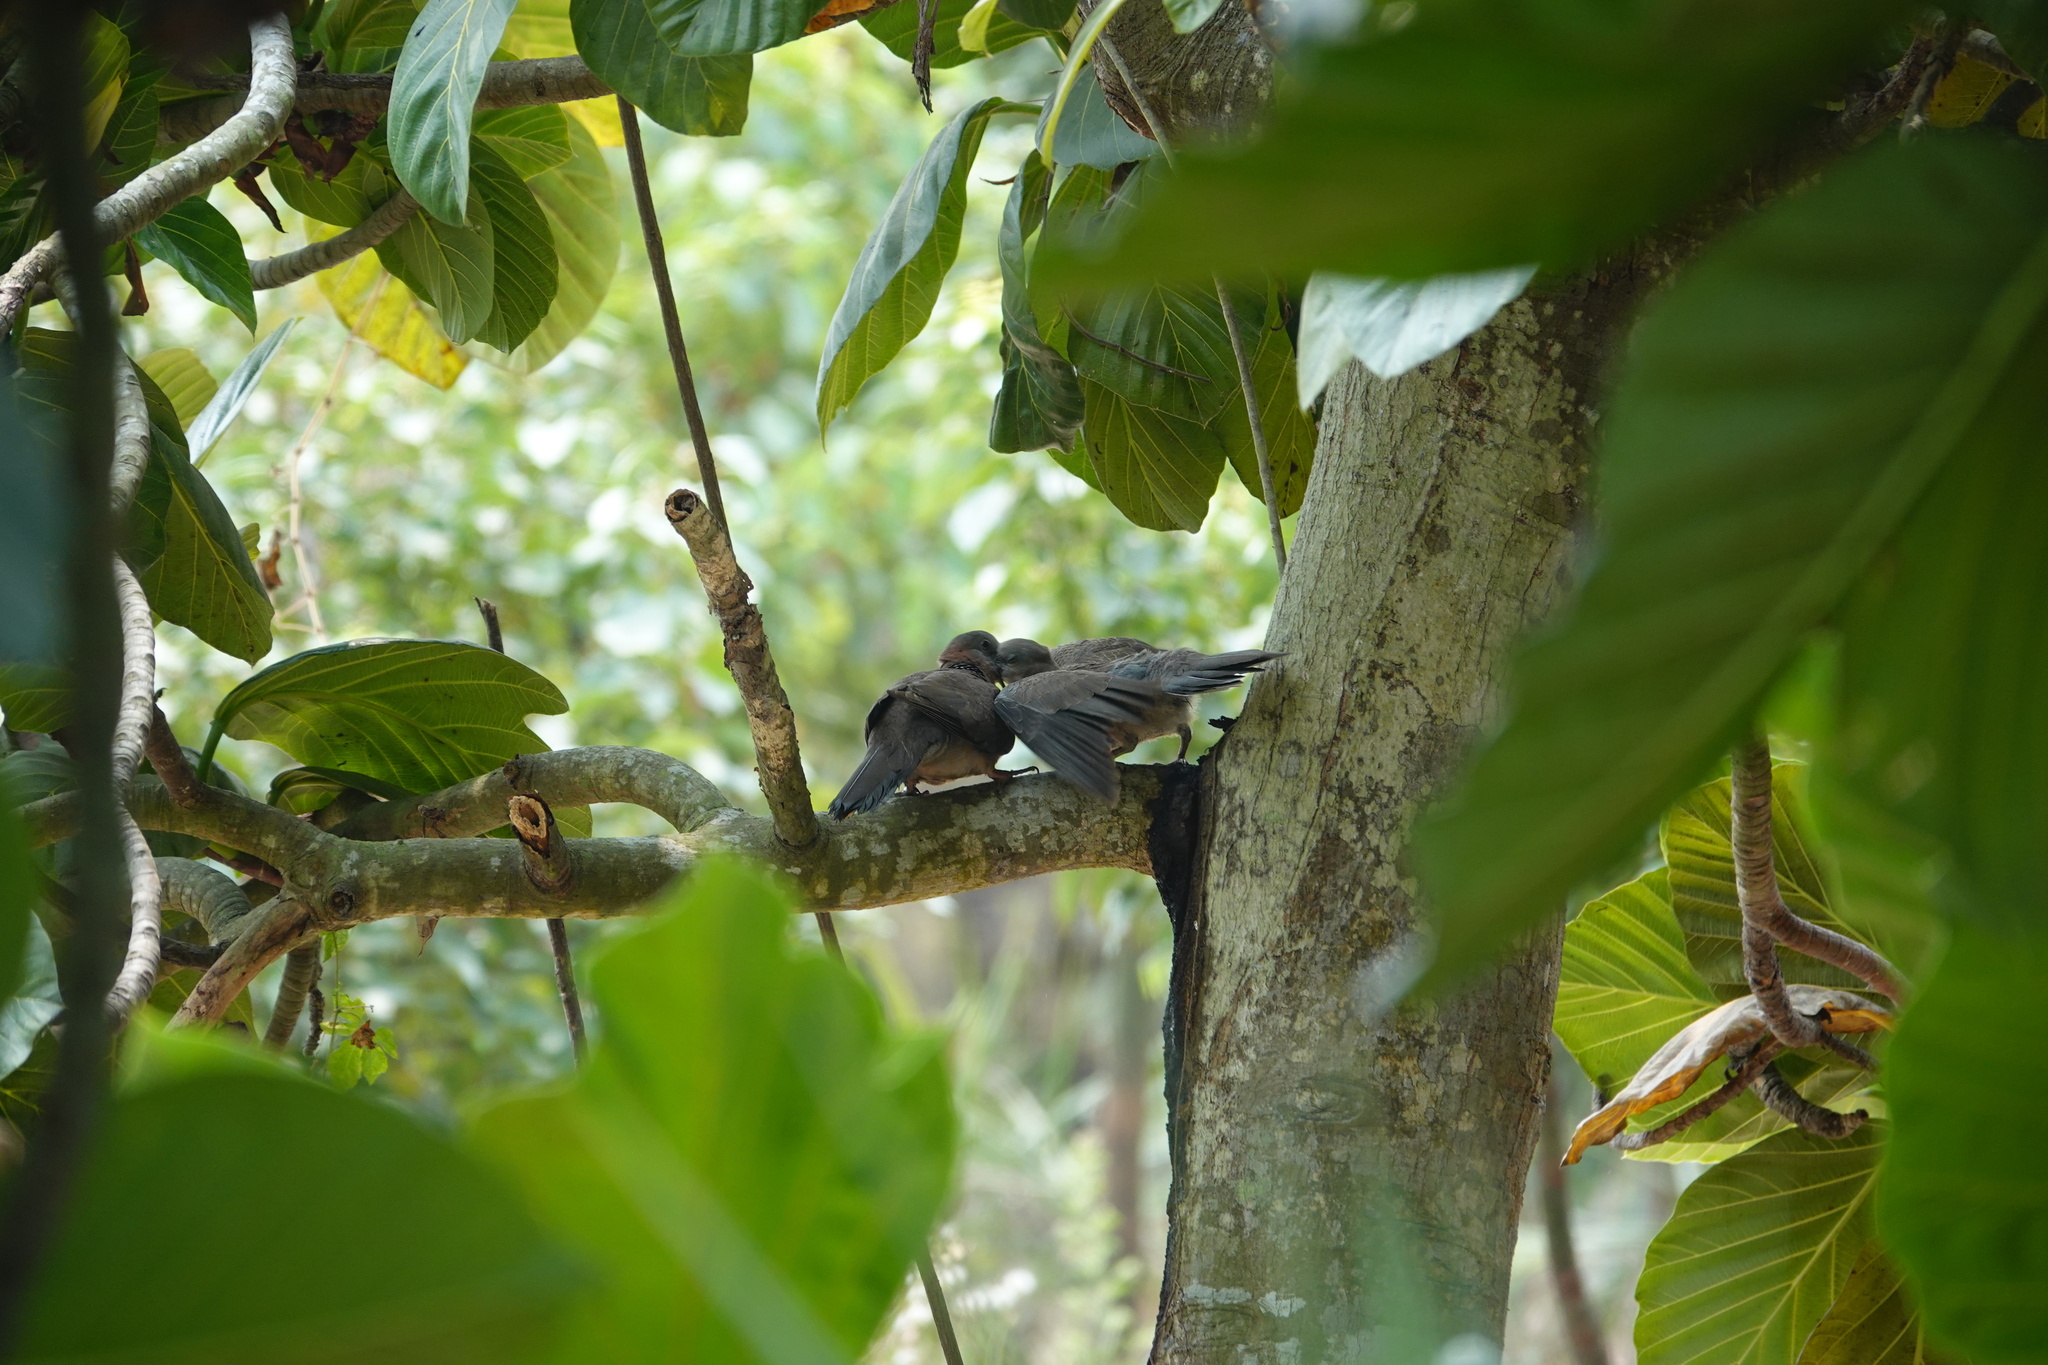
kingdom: Animalia
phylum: Chordata
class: Aves
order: Columbiformes
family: Columbidae
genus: Spilopelia
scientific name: Spilopelia chinensis
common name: Spotted dove
